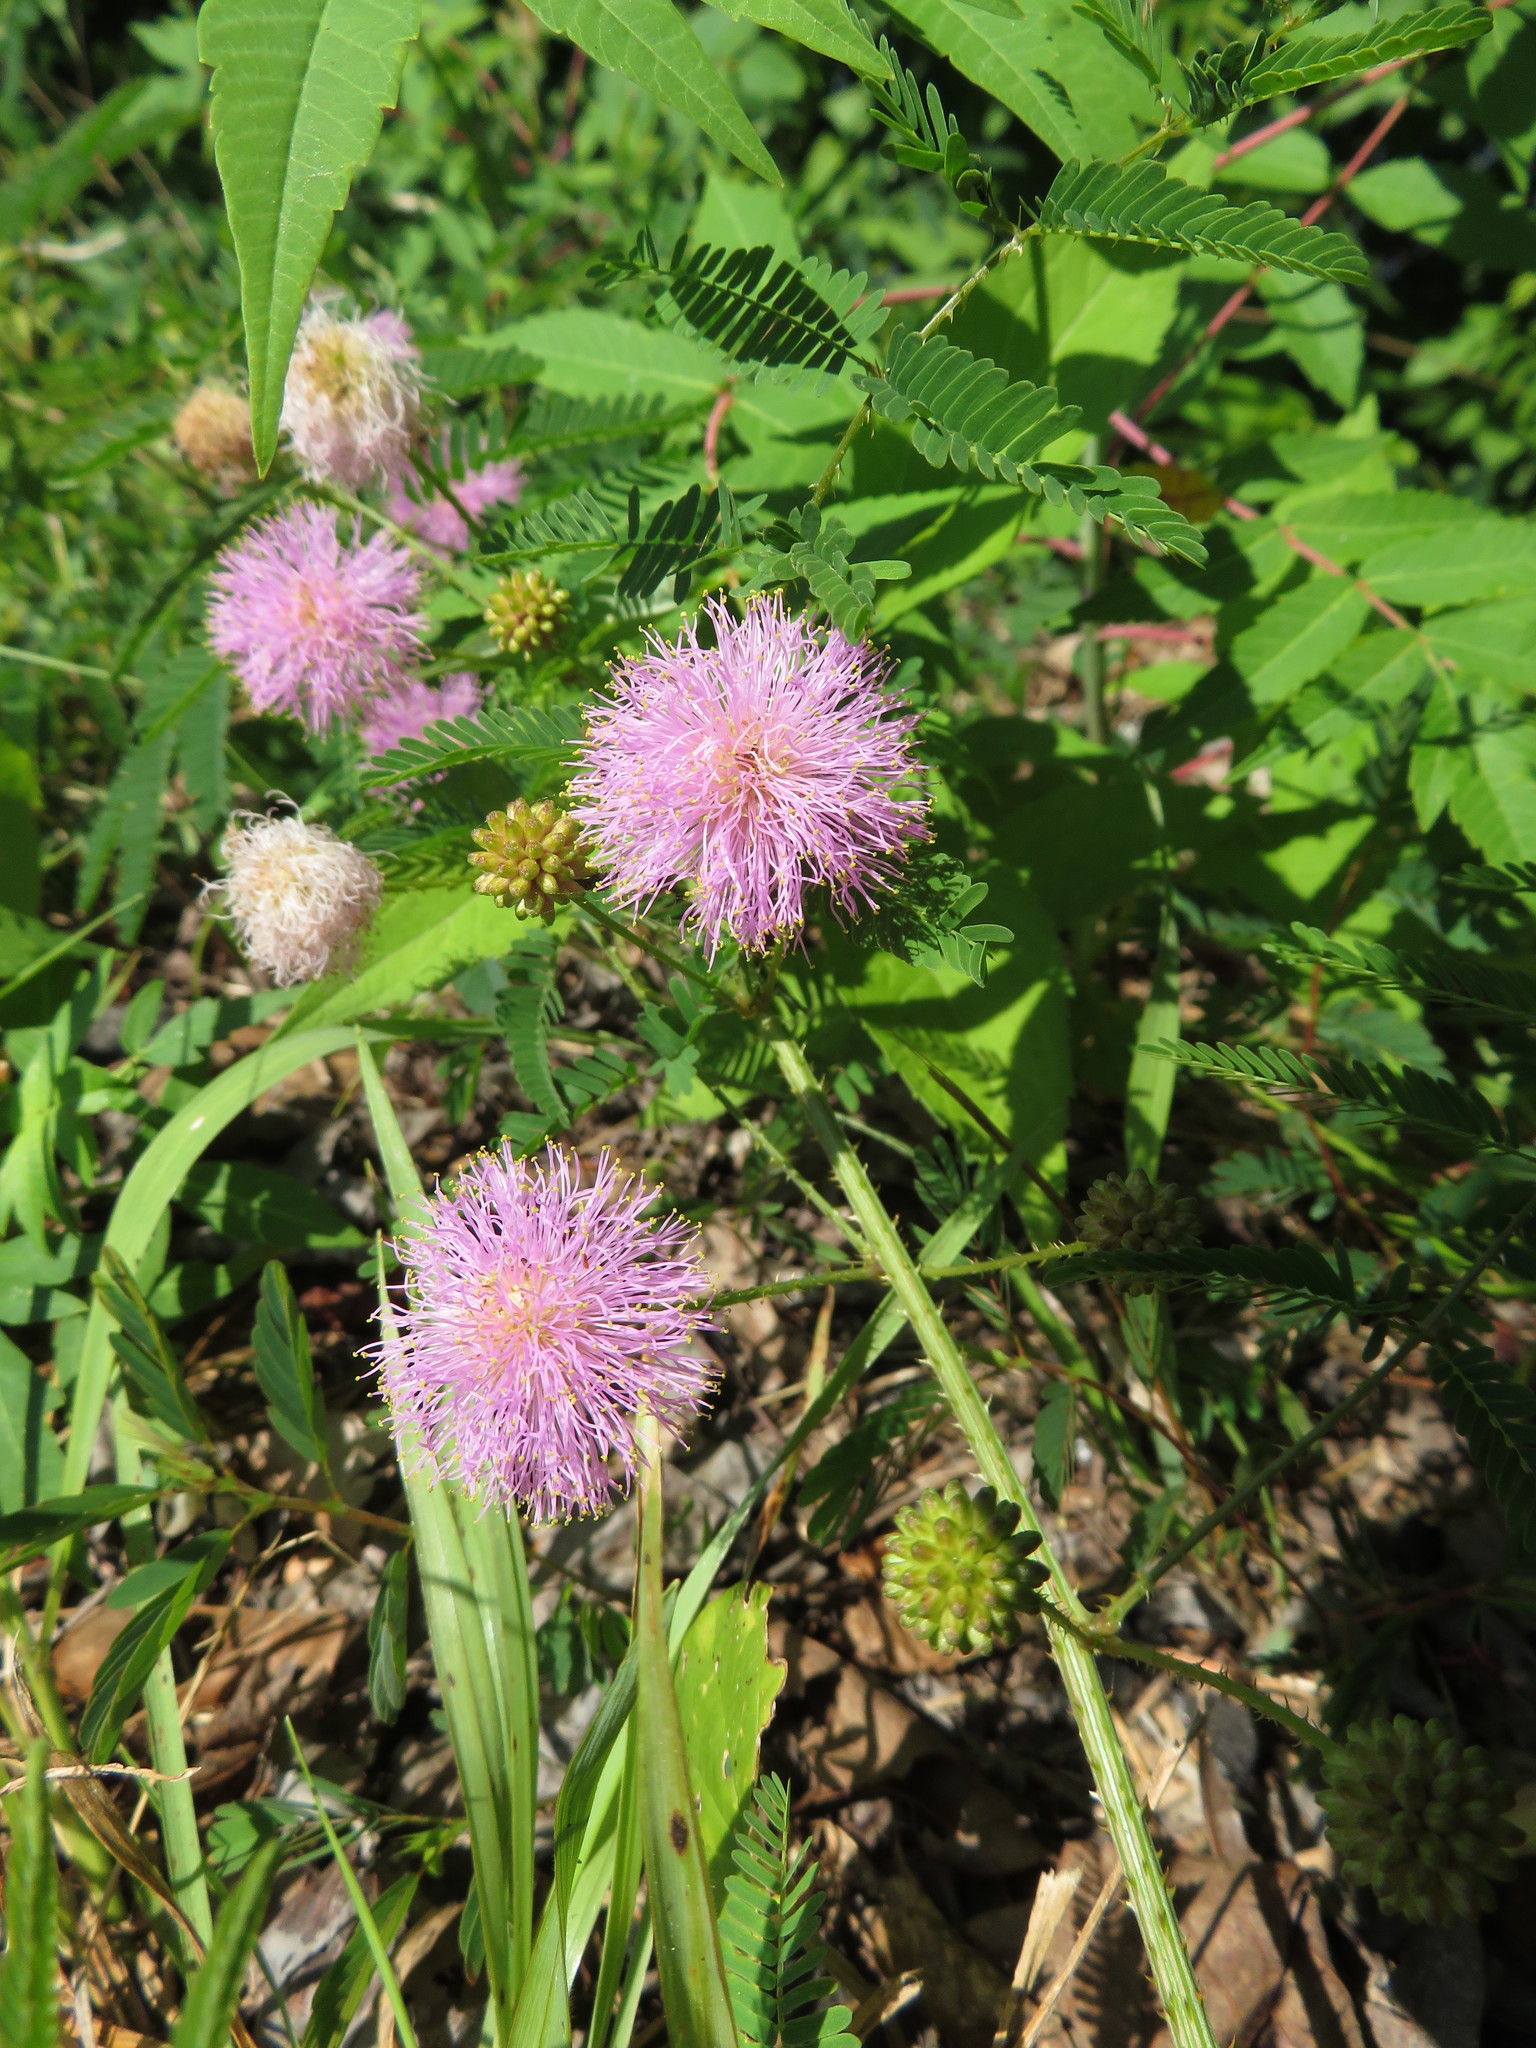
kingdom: Plantae
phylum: Tracheophyta
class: Magnoliopsida
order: Fabales
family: Fabaceae
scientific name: Fabaceae
